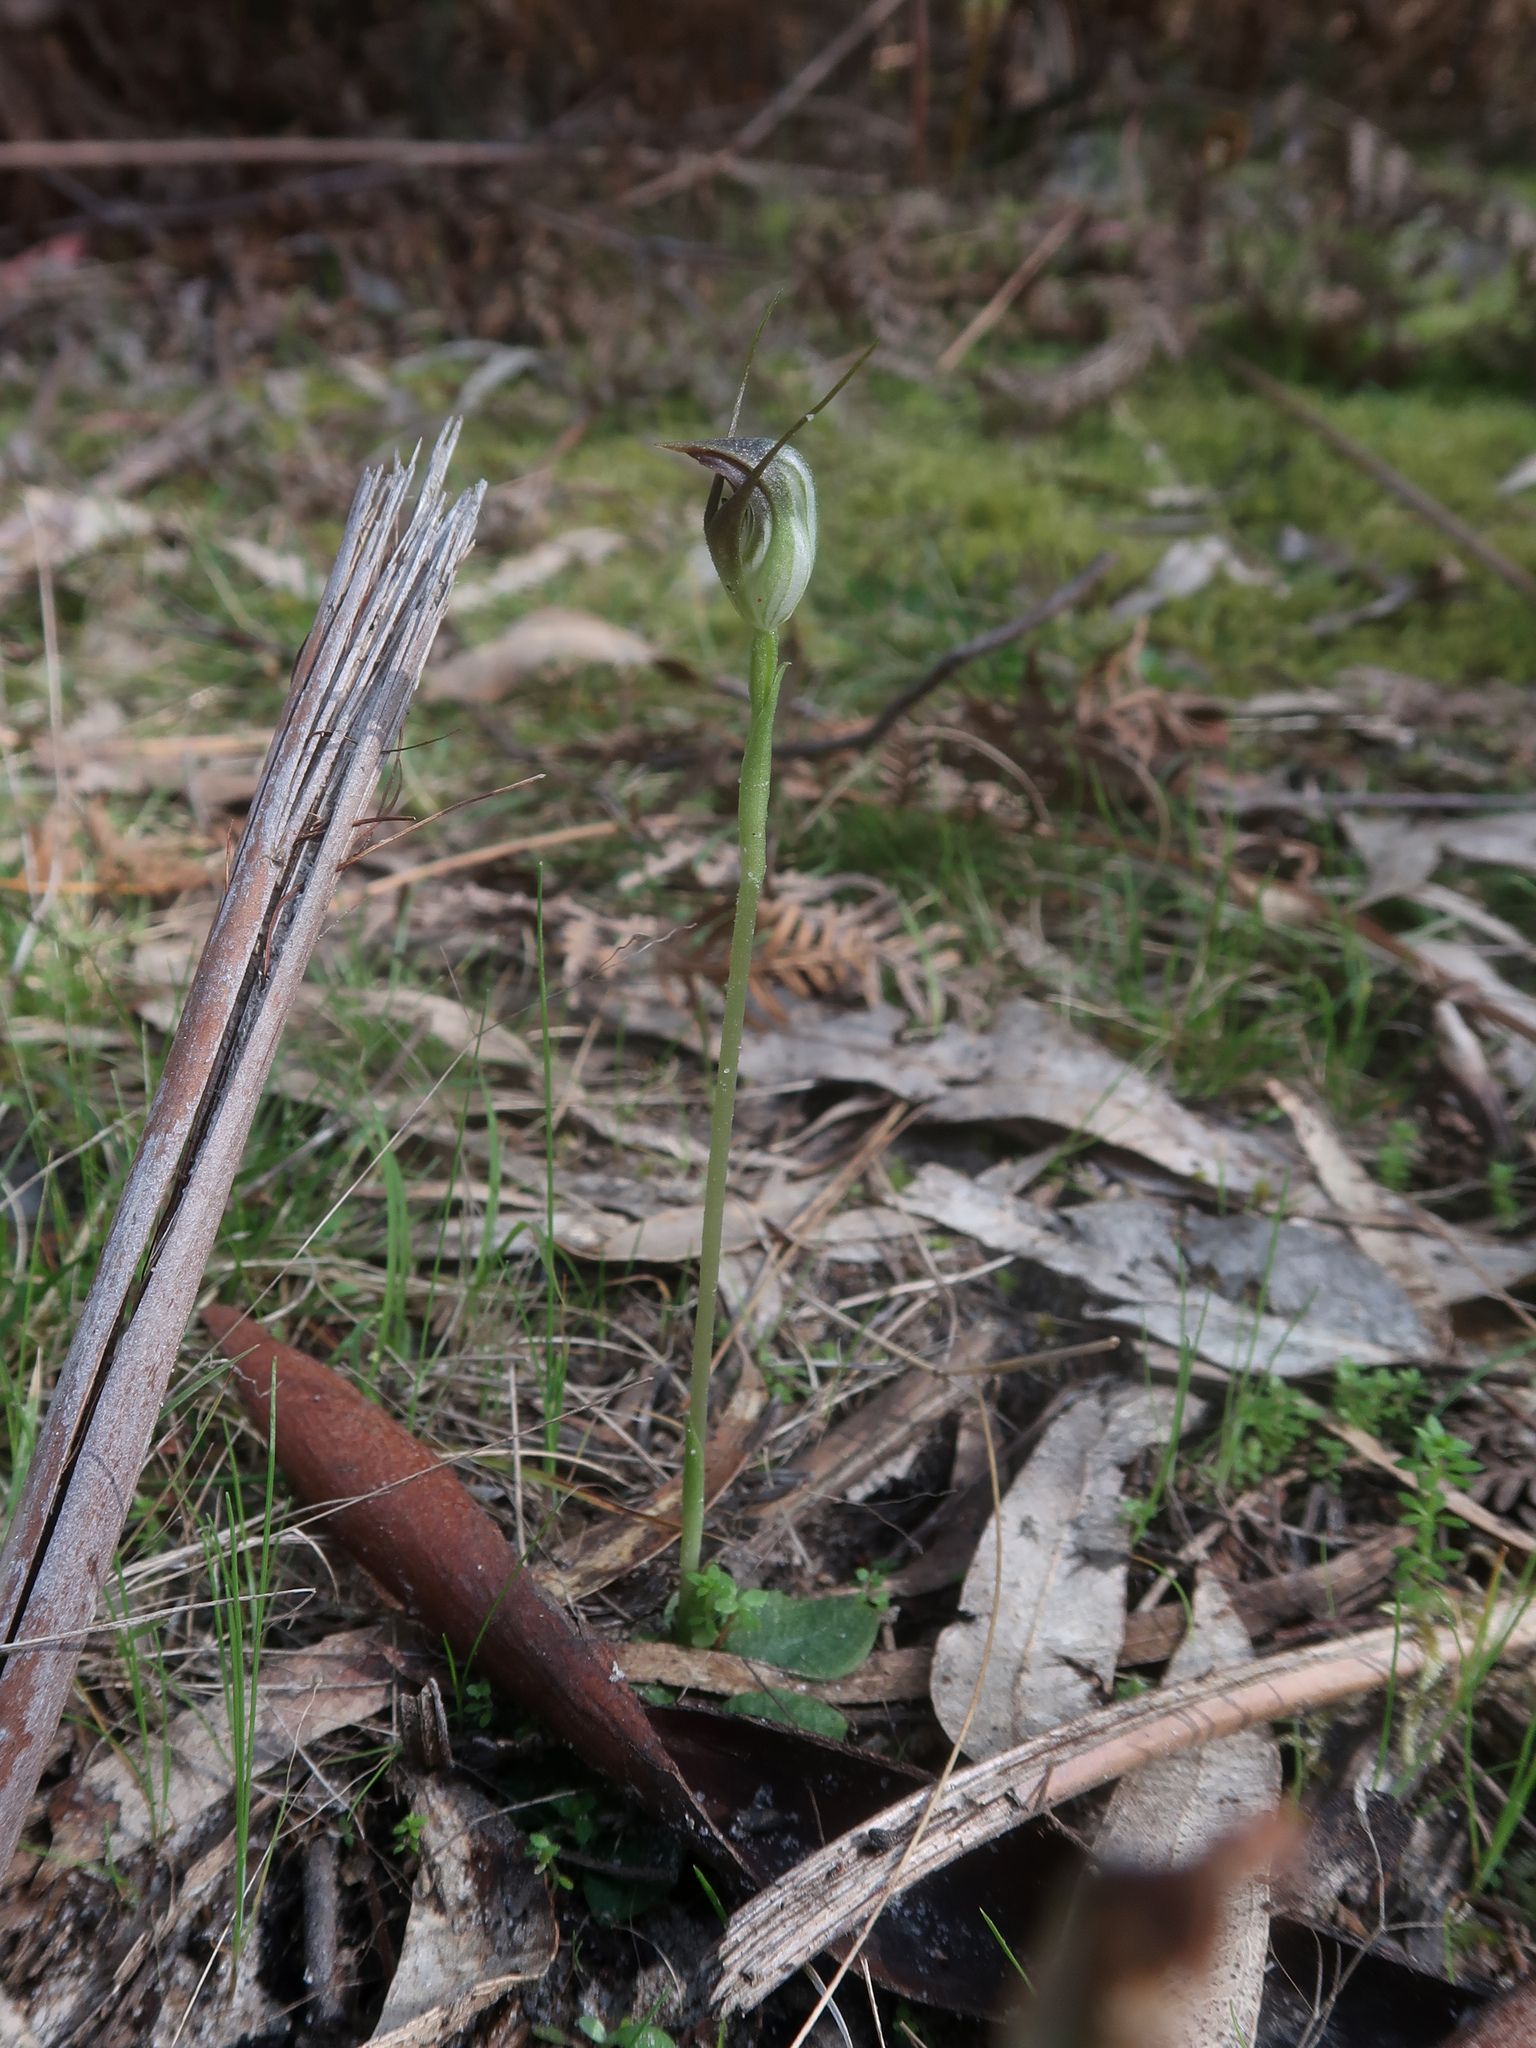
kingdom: Plantae
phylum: Tracheophyta
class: Liliopsida
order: Asparagales
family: Orchidaceae
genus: Pterostylis
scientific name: Pterostylis pedunculata
